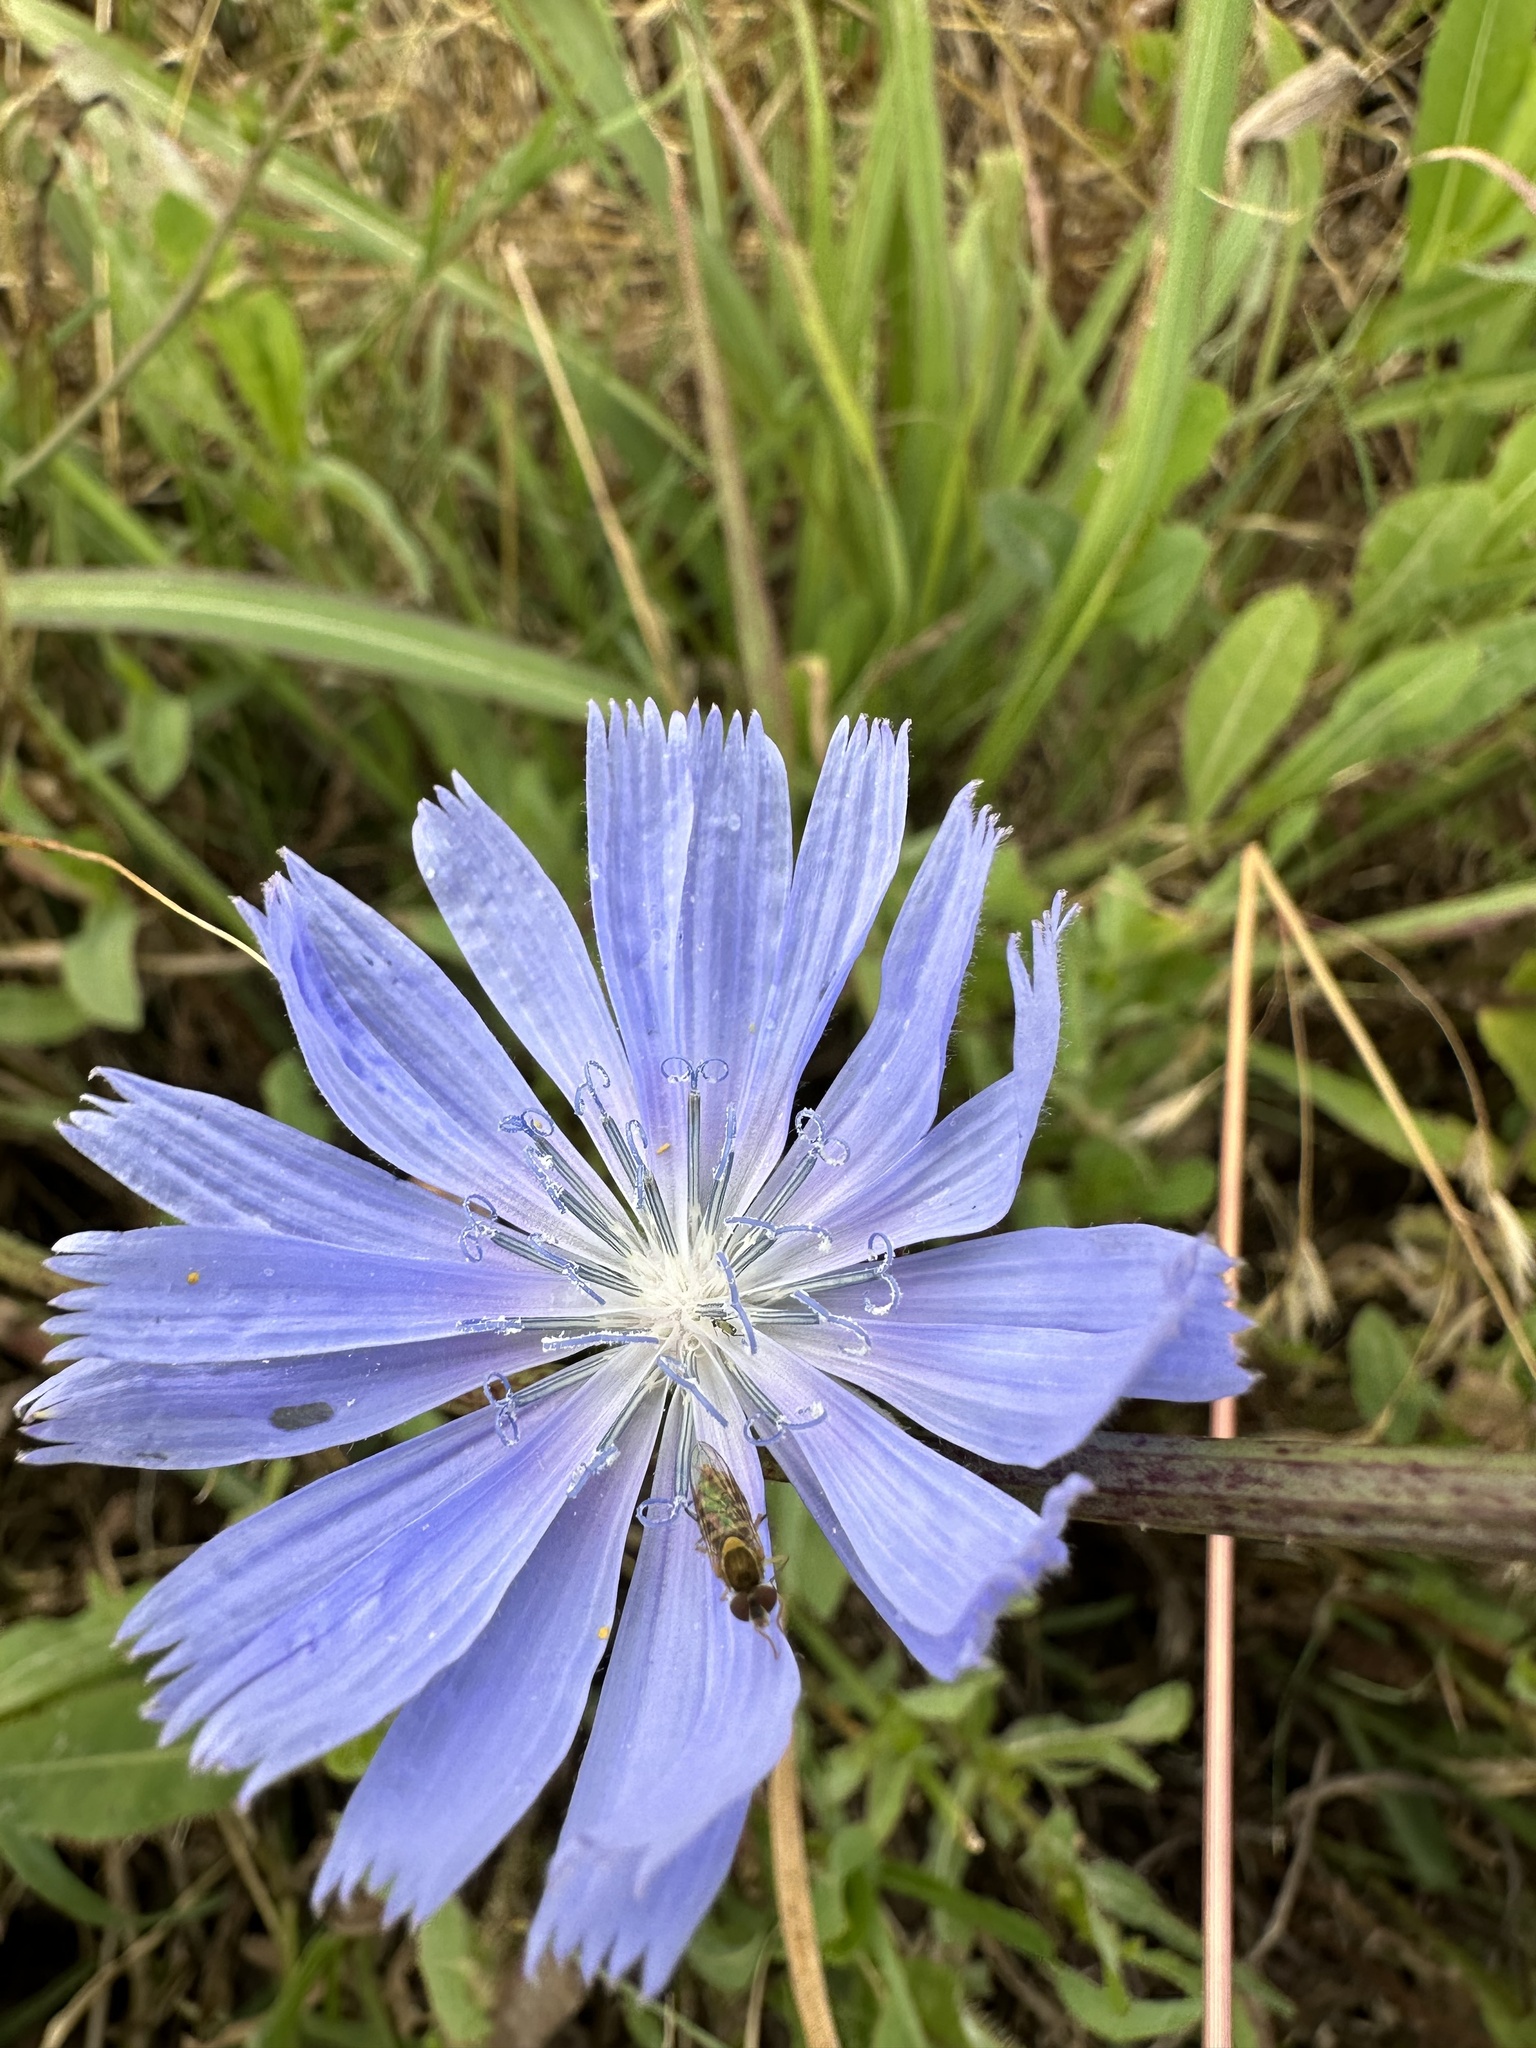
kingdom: Plantae
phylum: Tracheophyta
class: Magnoliopsida
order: Asterales
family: Asteraceae
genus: Cichorium
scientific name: Cichorium intybus
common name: Chicory
